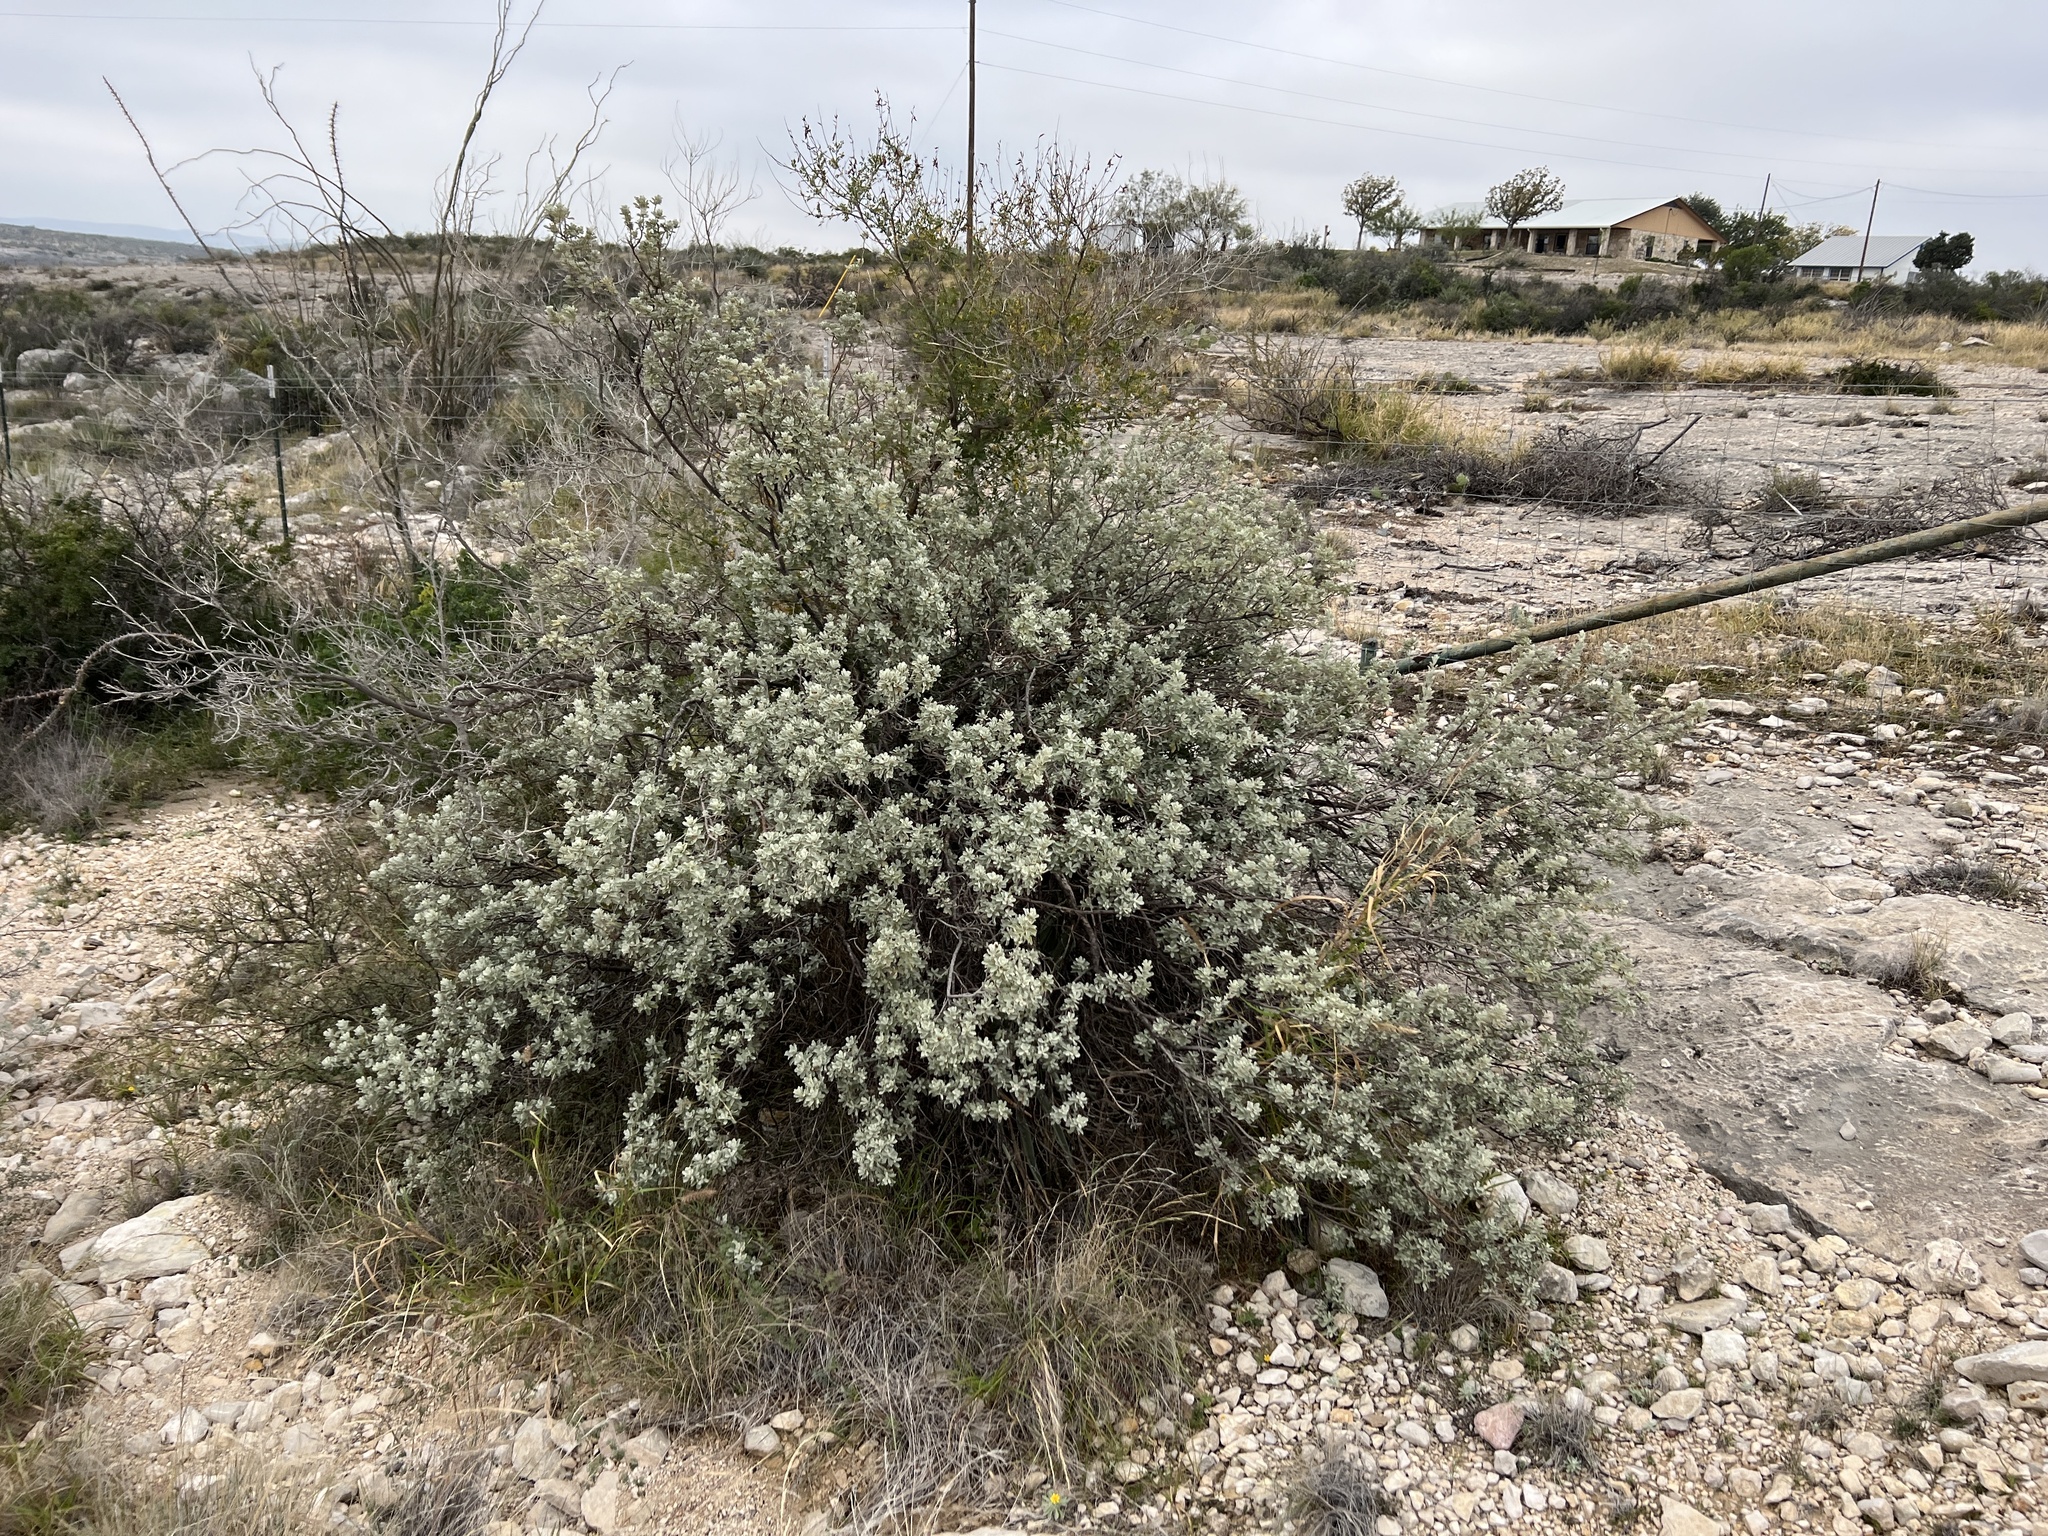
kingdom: Plantae
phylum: Tracheophyta
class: Magnoliopsida
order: Lamiales
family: Scrophulariaceae
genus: Leucophyllum
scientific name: Leucophyllum frutescens
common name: Texas silverleaf
